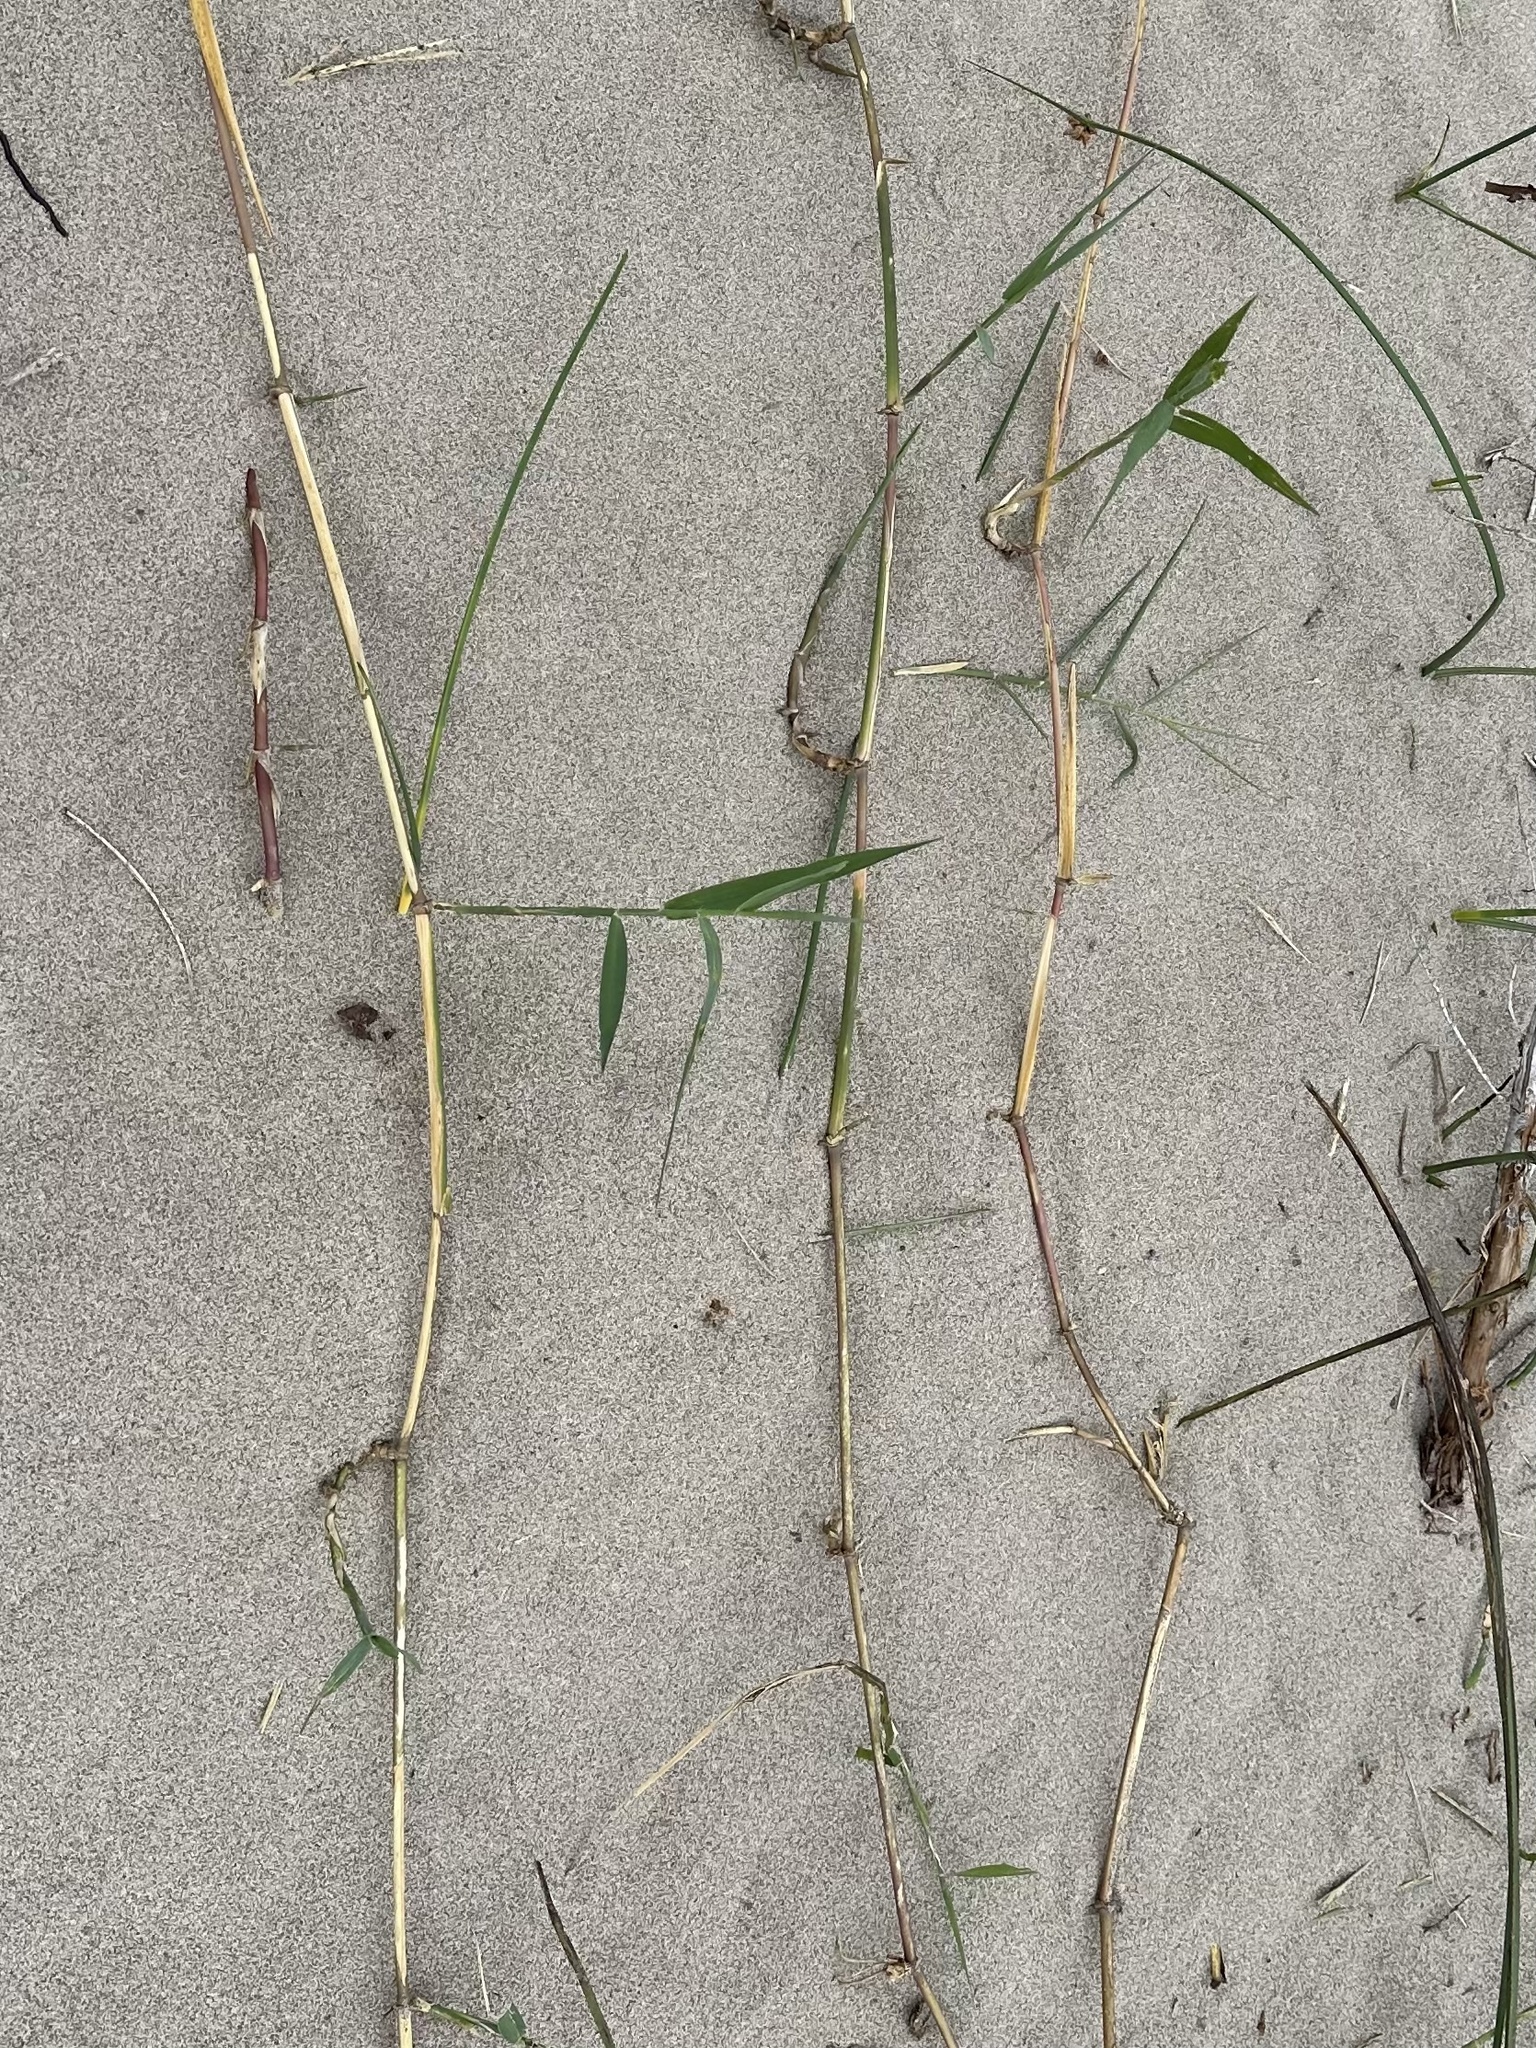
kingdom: Plantae
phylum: Tracheophyta
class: Liliopsida
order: Poales
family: Poaceae
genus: Phragmites
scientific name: Phragmites australis
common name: Common reed
